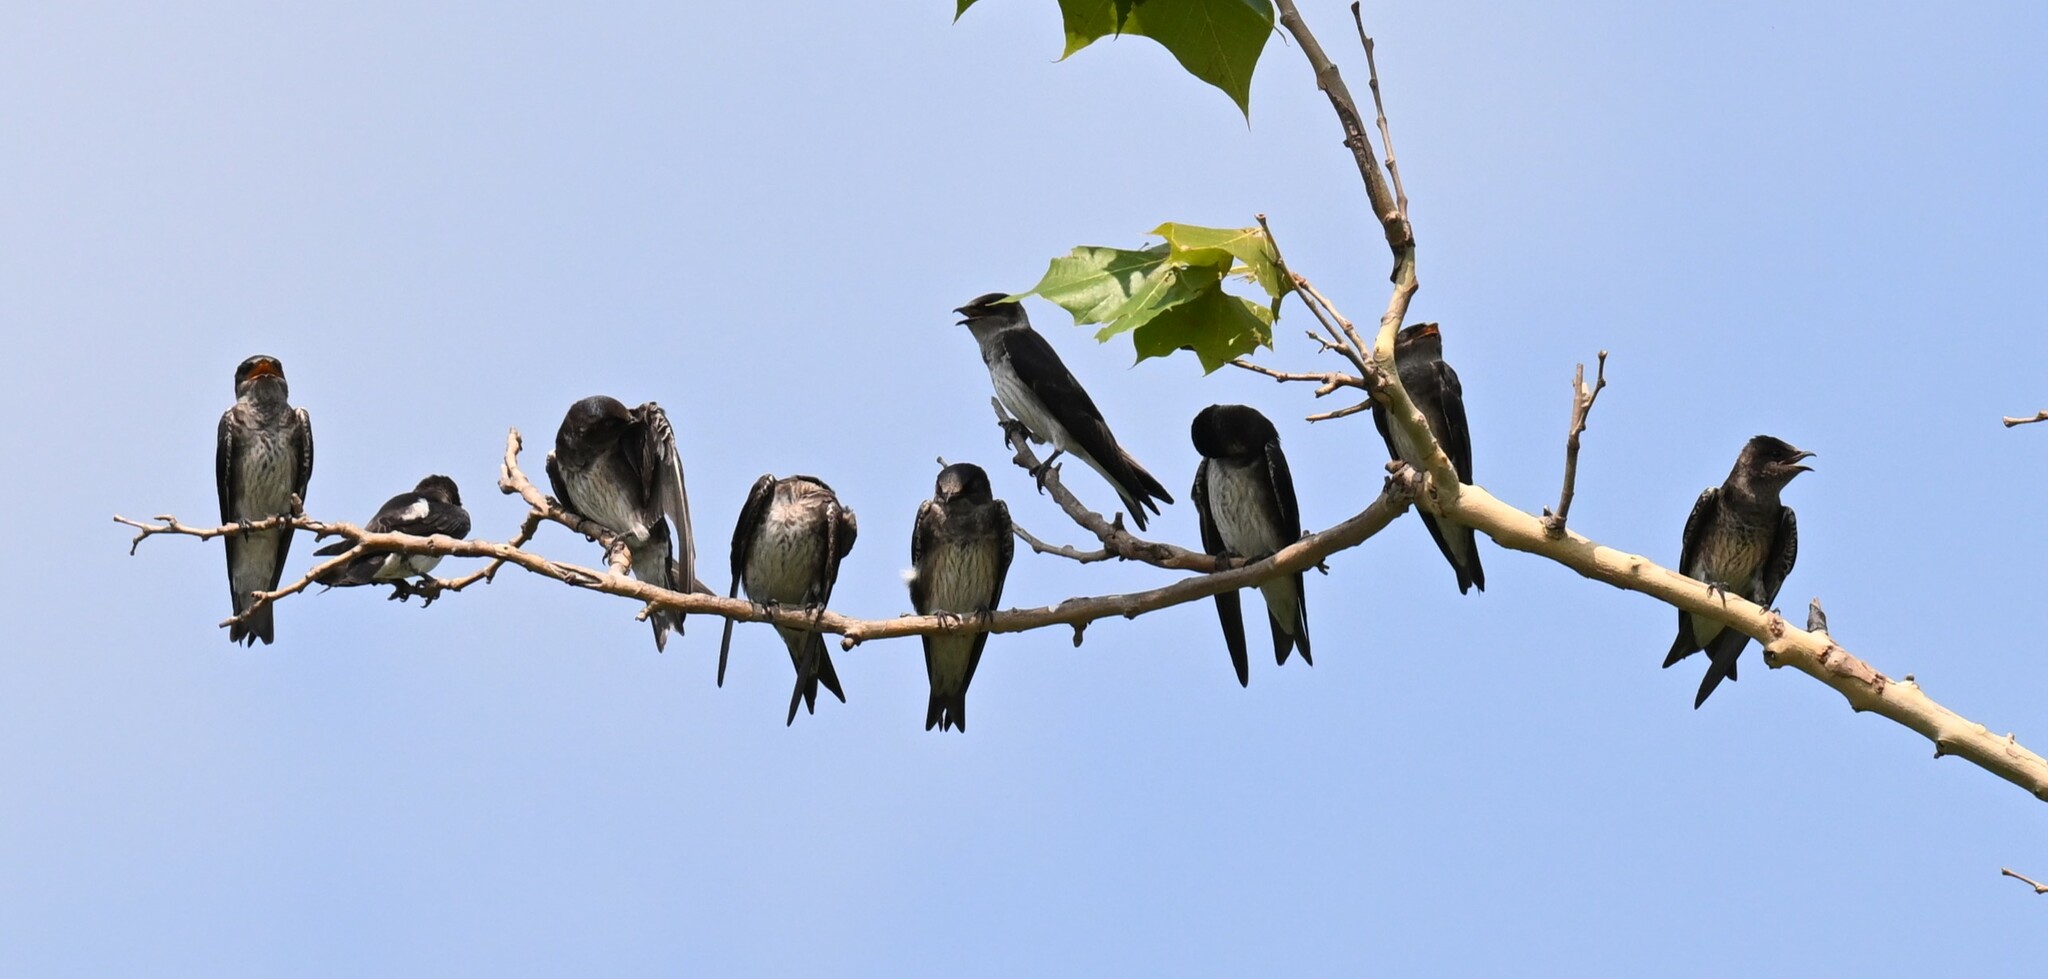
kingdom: Animalia
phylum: Chordata
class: Aves
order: Passeriformes
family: Hirundinidae
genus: Progne
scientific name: Progne subis
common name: Purple martin
